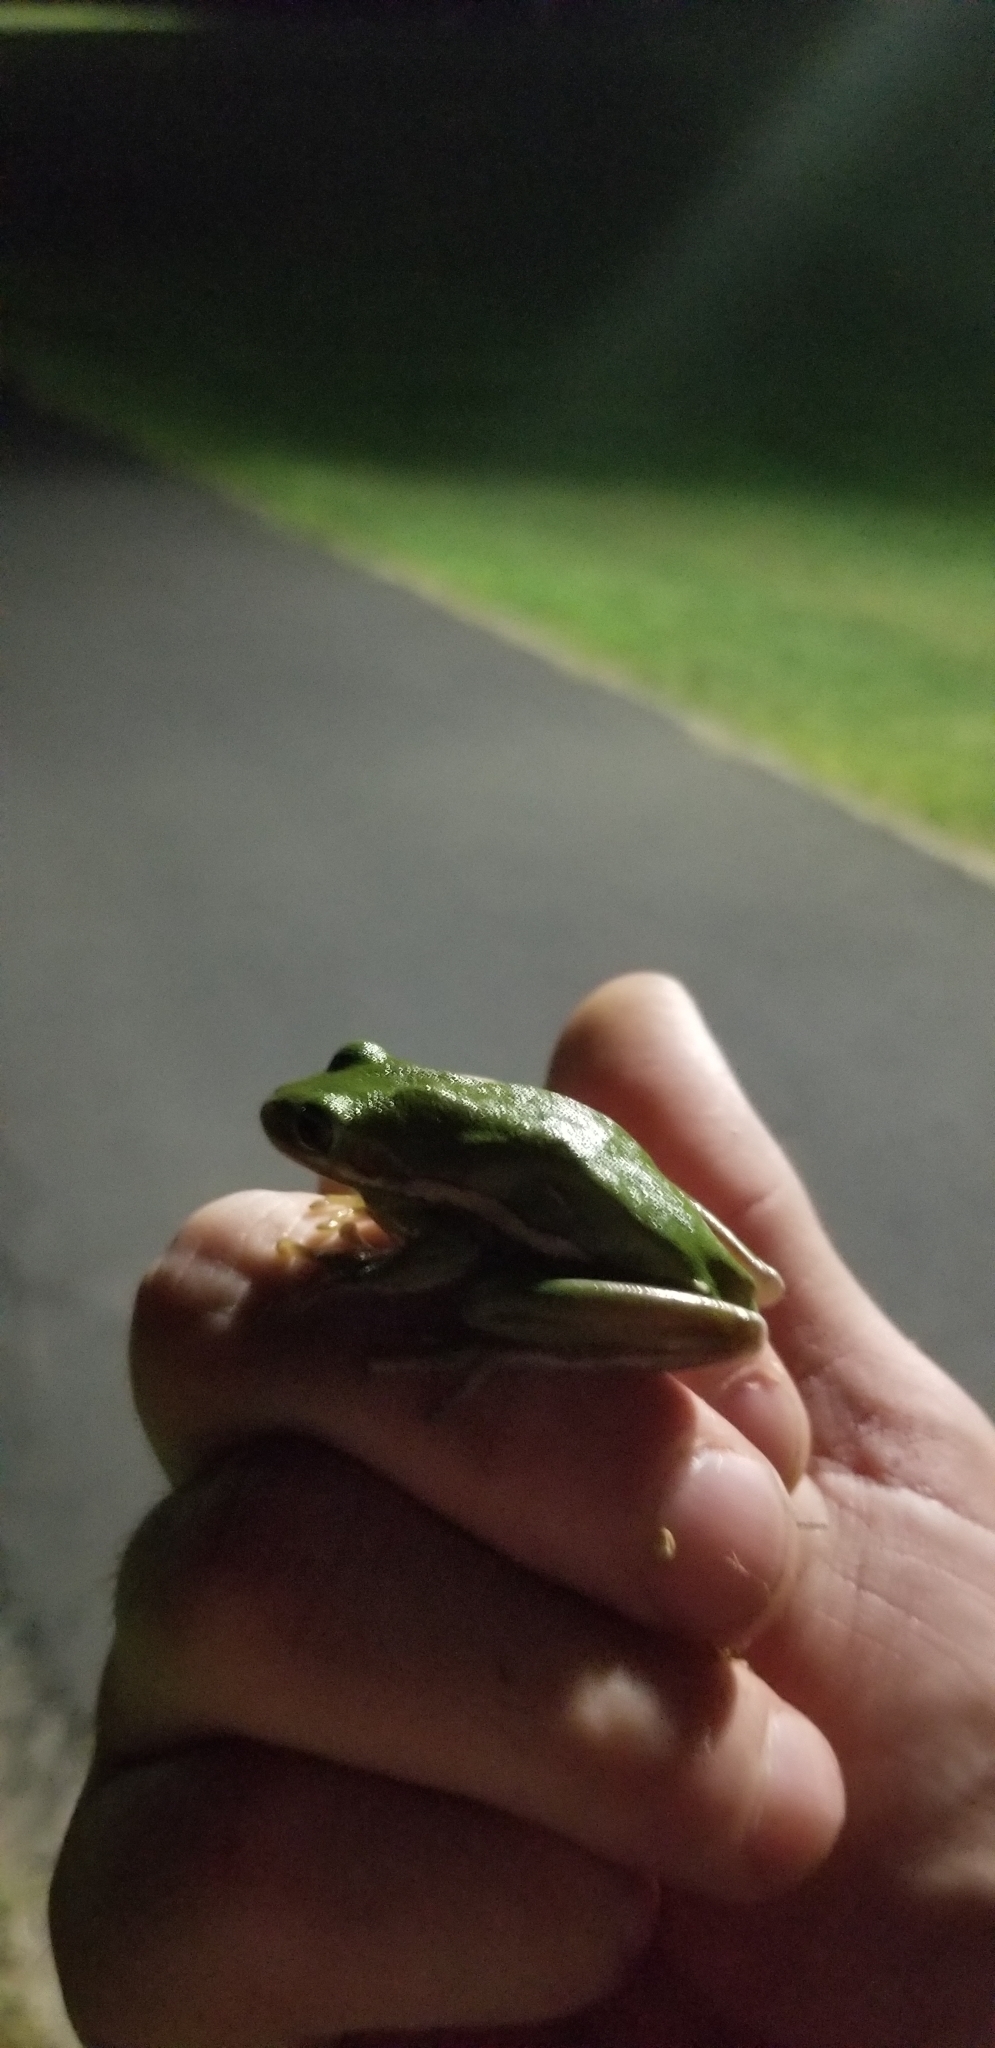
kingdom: Animalia
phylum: Chordata
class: Amphibia
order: Anura
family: Hylidae
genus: Dryophytes
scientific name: Dryophytes cinereus
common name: Green treefrog
